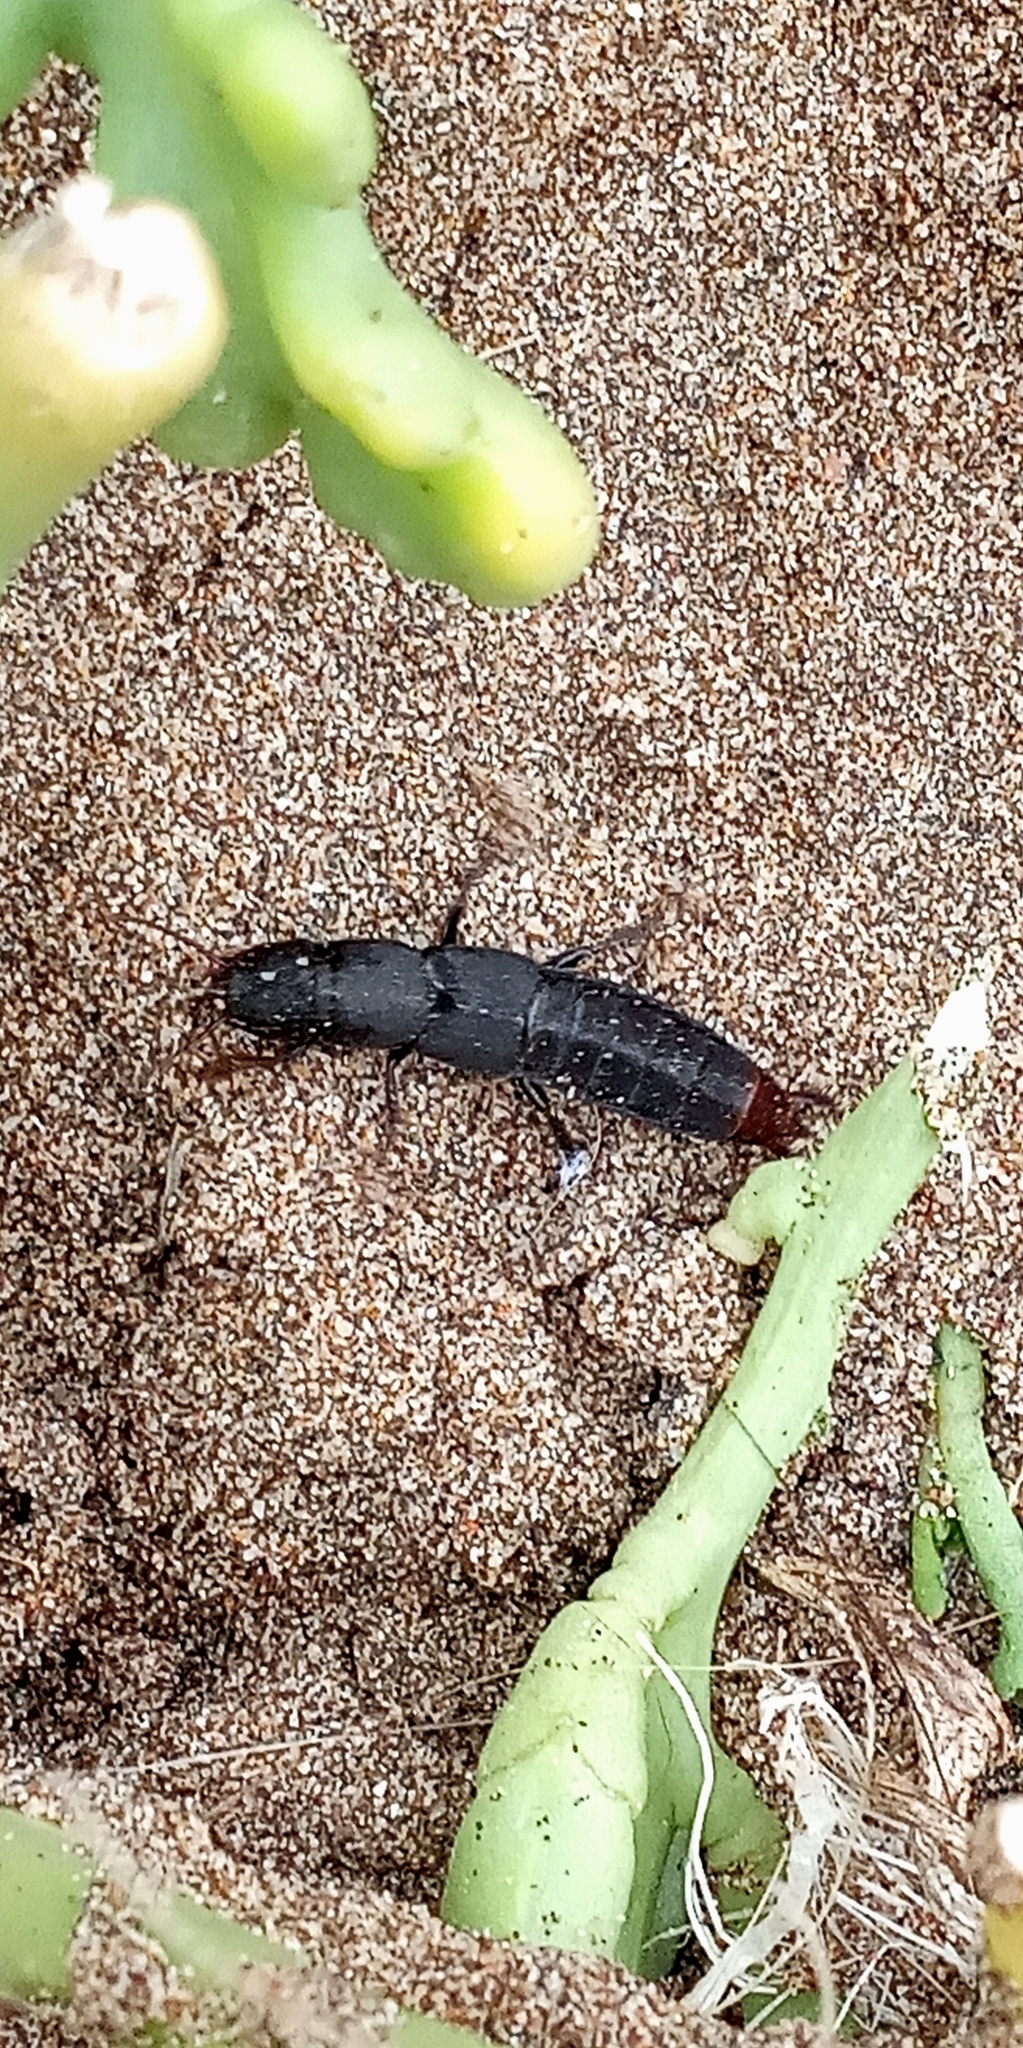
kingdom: Animalia
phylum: Arthropoda
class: Insecta
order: Coleoptera
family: Staphylinidae
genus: Platydracus
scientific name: Platydracus scabrosus
